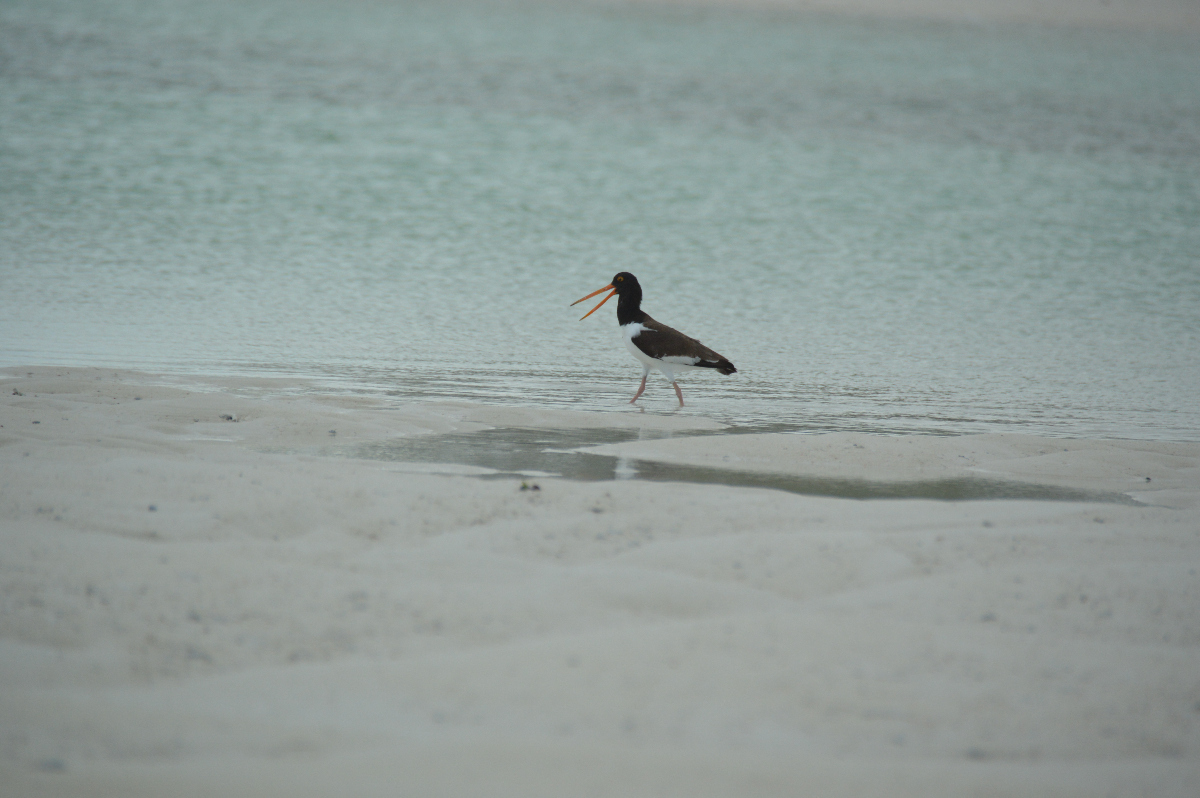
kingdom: Animalia
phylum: Chordata
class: Aves
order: Charadriiformes
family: Haematopodidae
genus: Haematopus
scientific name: Haematopus palliatus
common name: American oystercatcher
